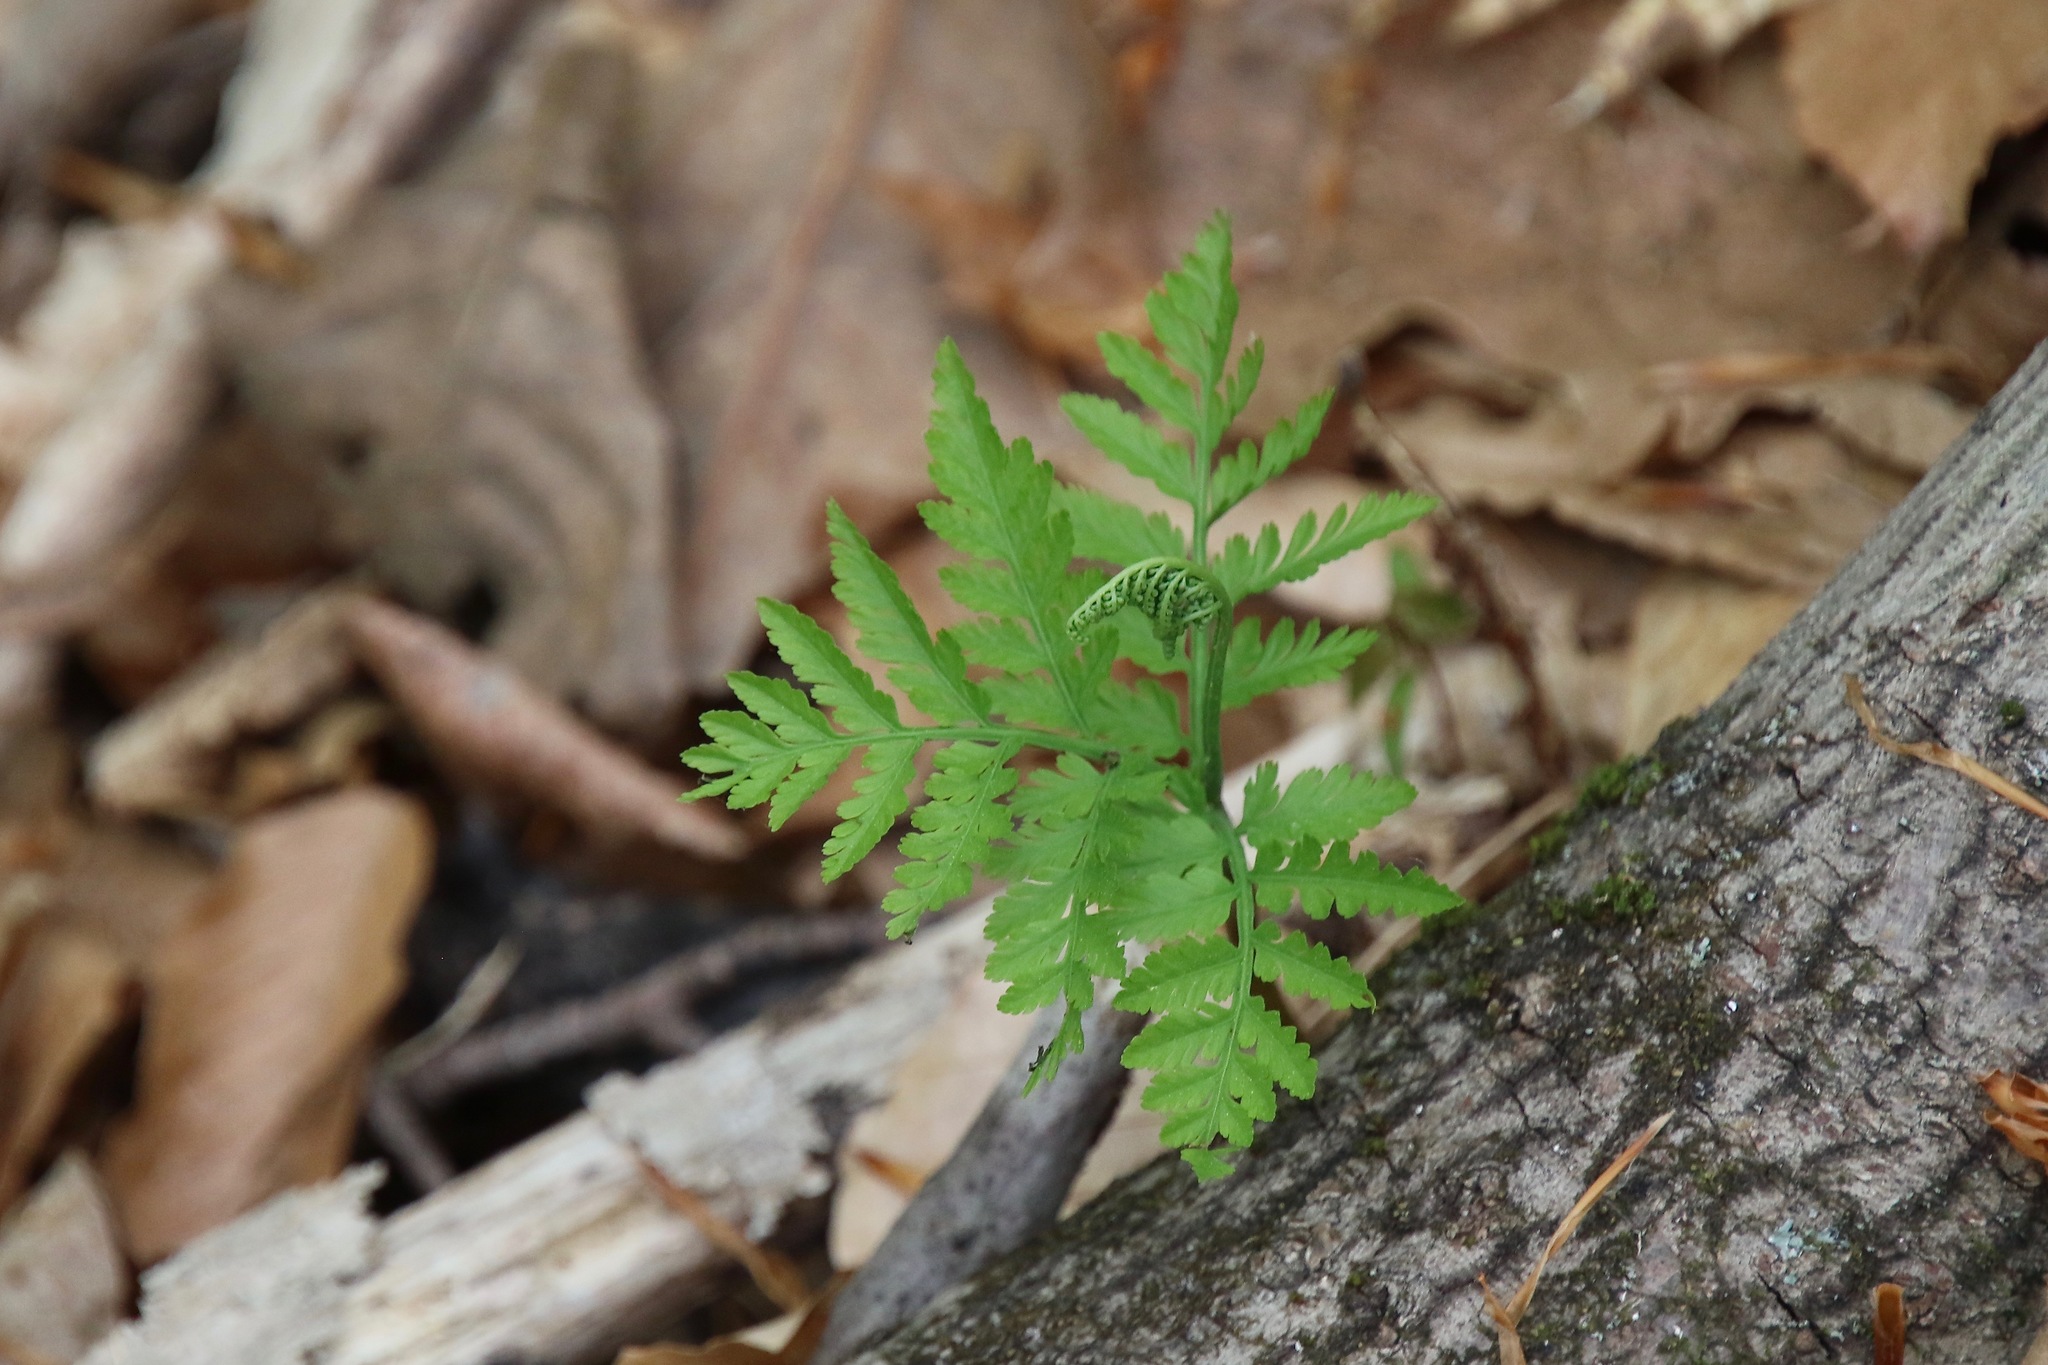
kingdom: Plantae
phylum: Tracheophyta
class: Polypodiopsida
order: Ophioglossales
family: Ophioglossaceae
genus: Botrypus
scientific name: Botrypus virginianus
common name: Common grapefern
